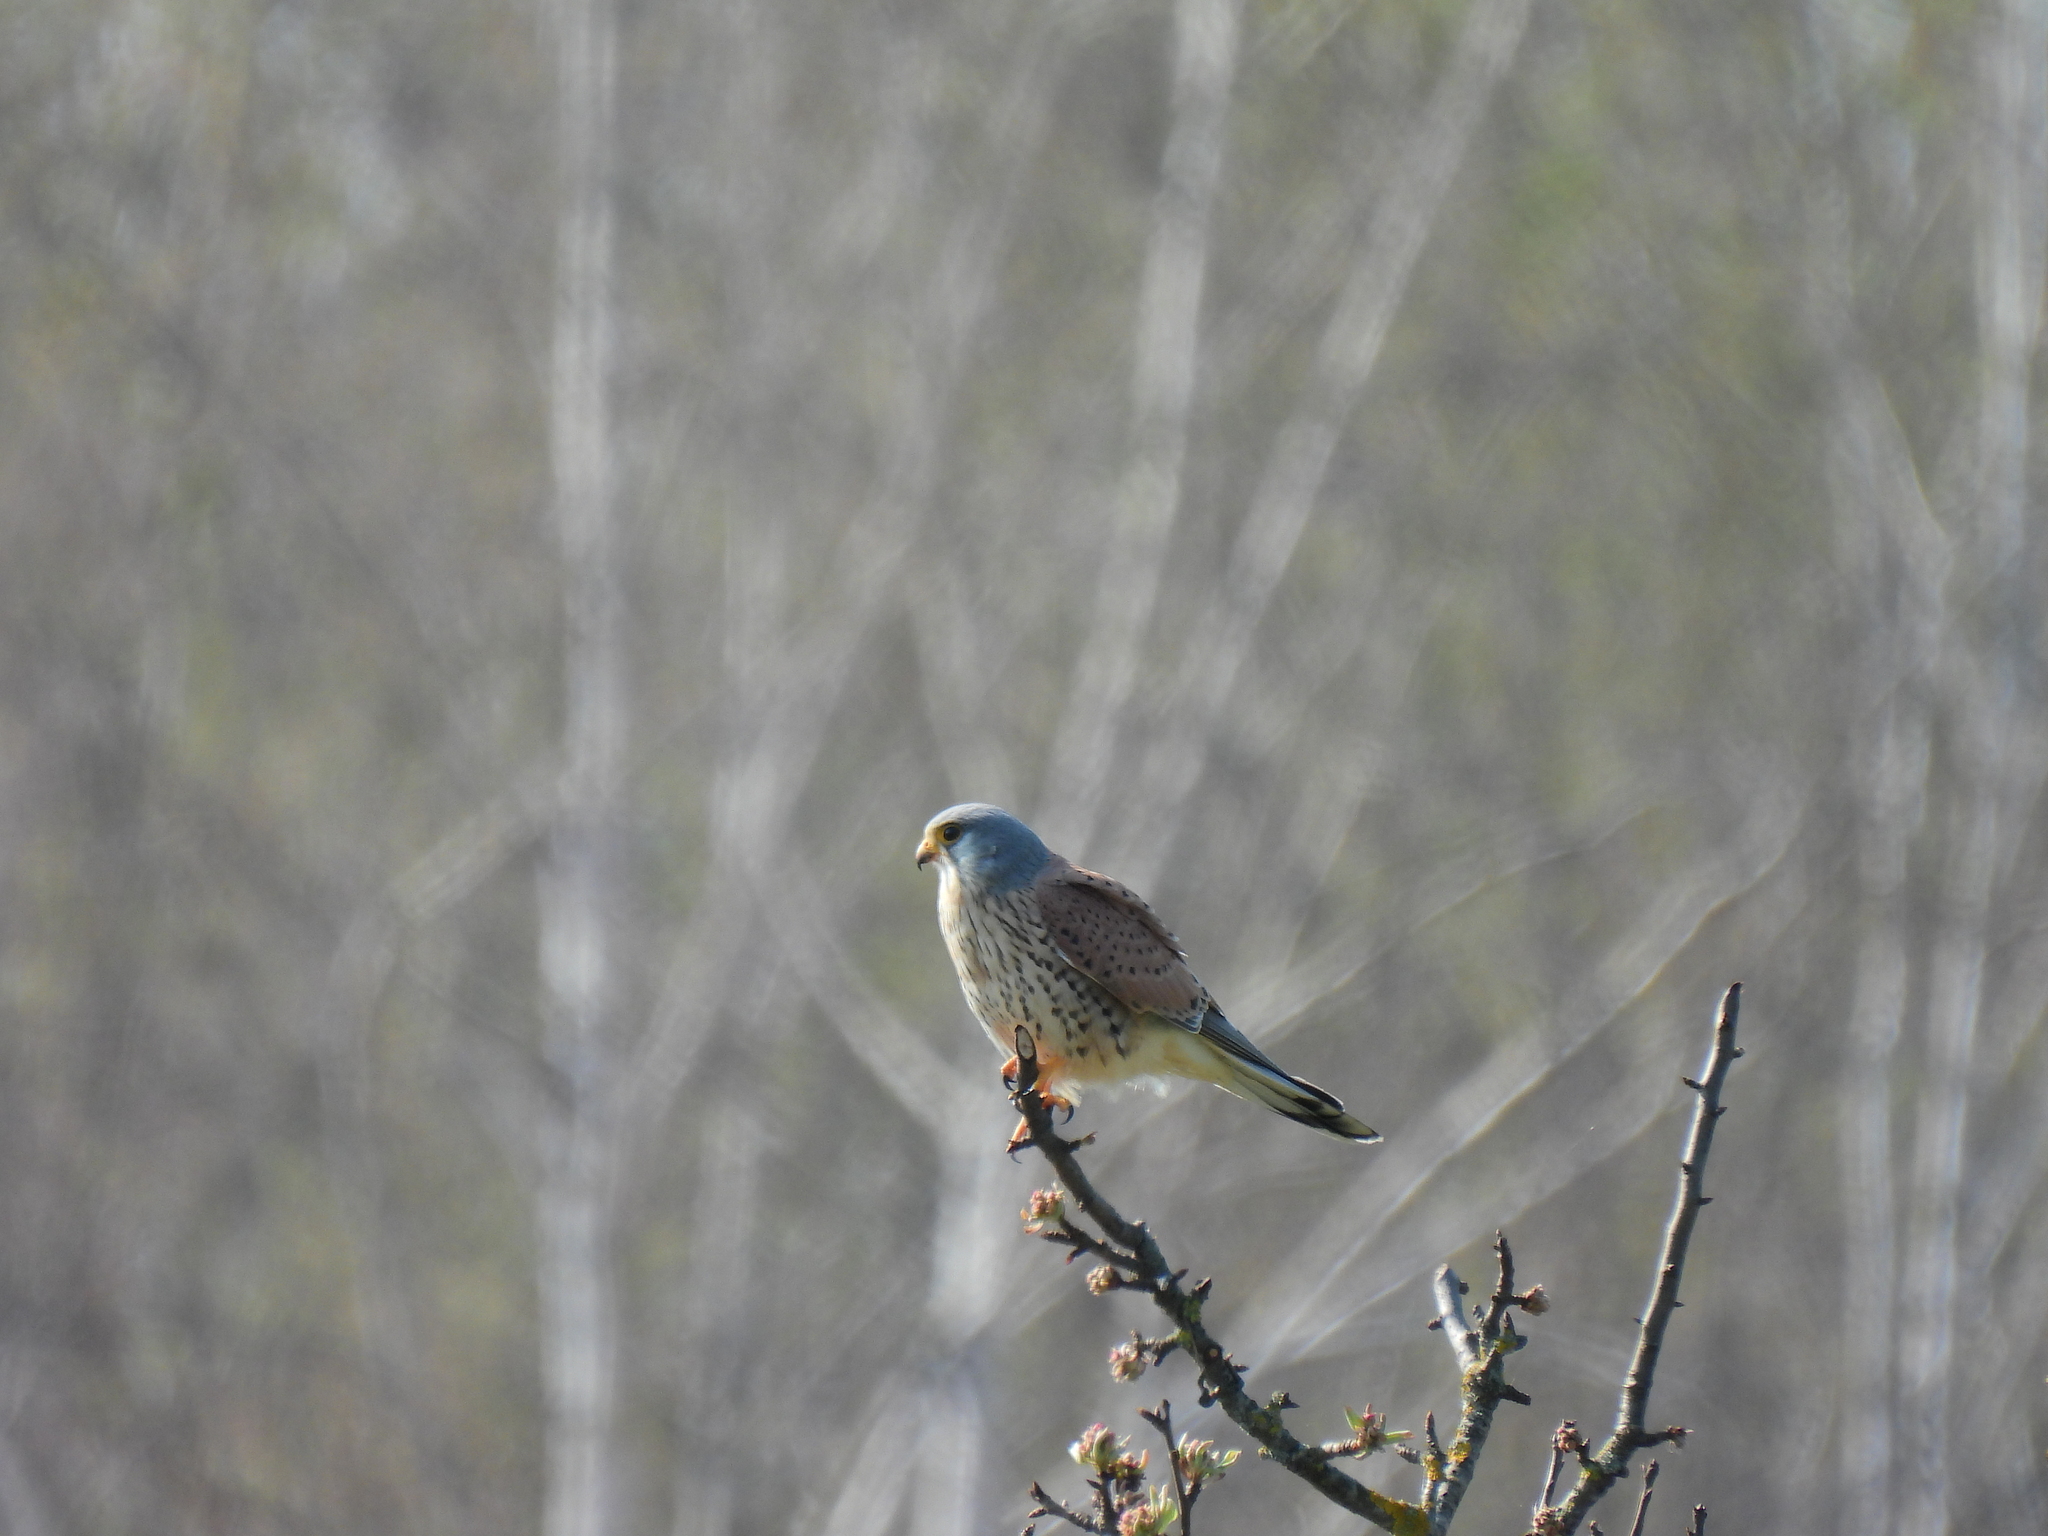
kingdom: Animalia
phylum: Chordata
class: Aves
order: Falconiformes
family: Falconidae
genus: Falco
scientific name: Falco tinnunculus
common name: Common kestrel
